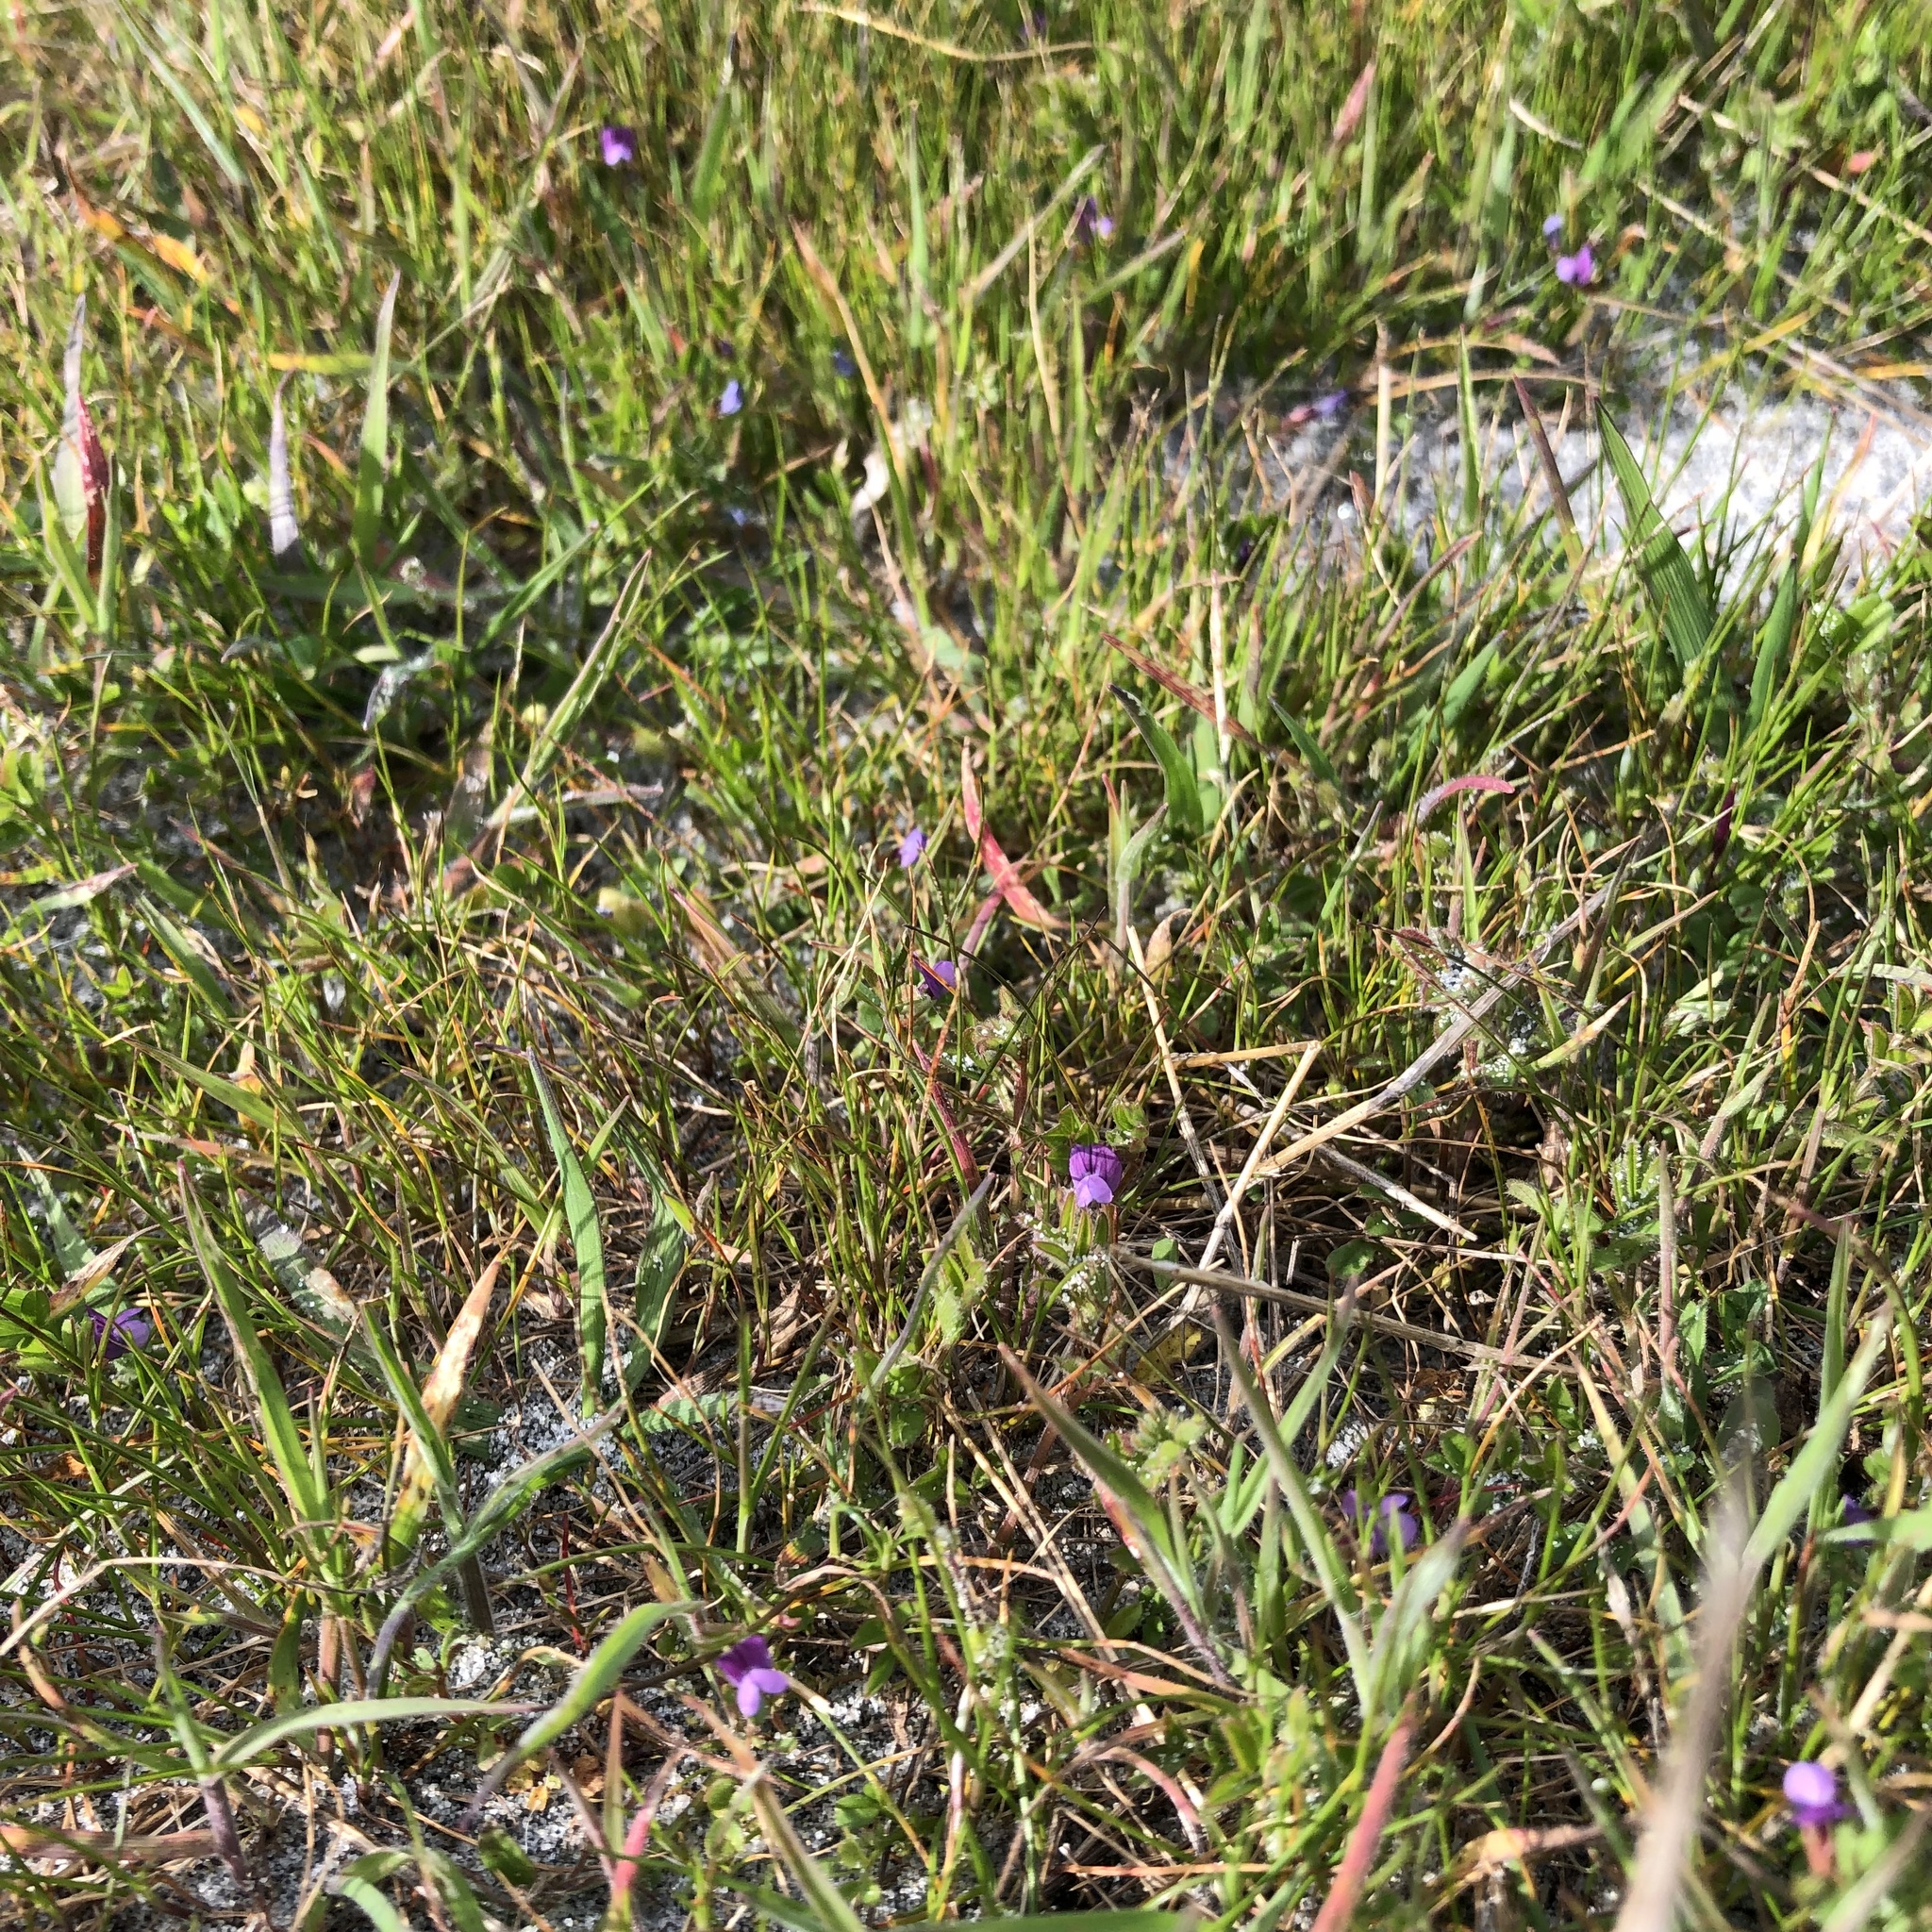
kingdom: Plantae
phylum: Tracheophyta
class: Magnoliopsida
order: Fabales
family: Fabaceae
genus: Vicia
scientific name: Vicia lathyroides
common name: Spring vetch
